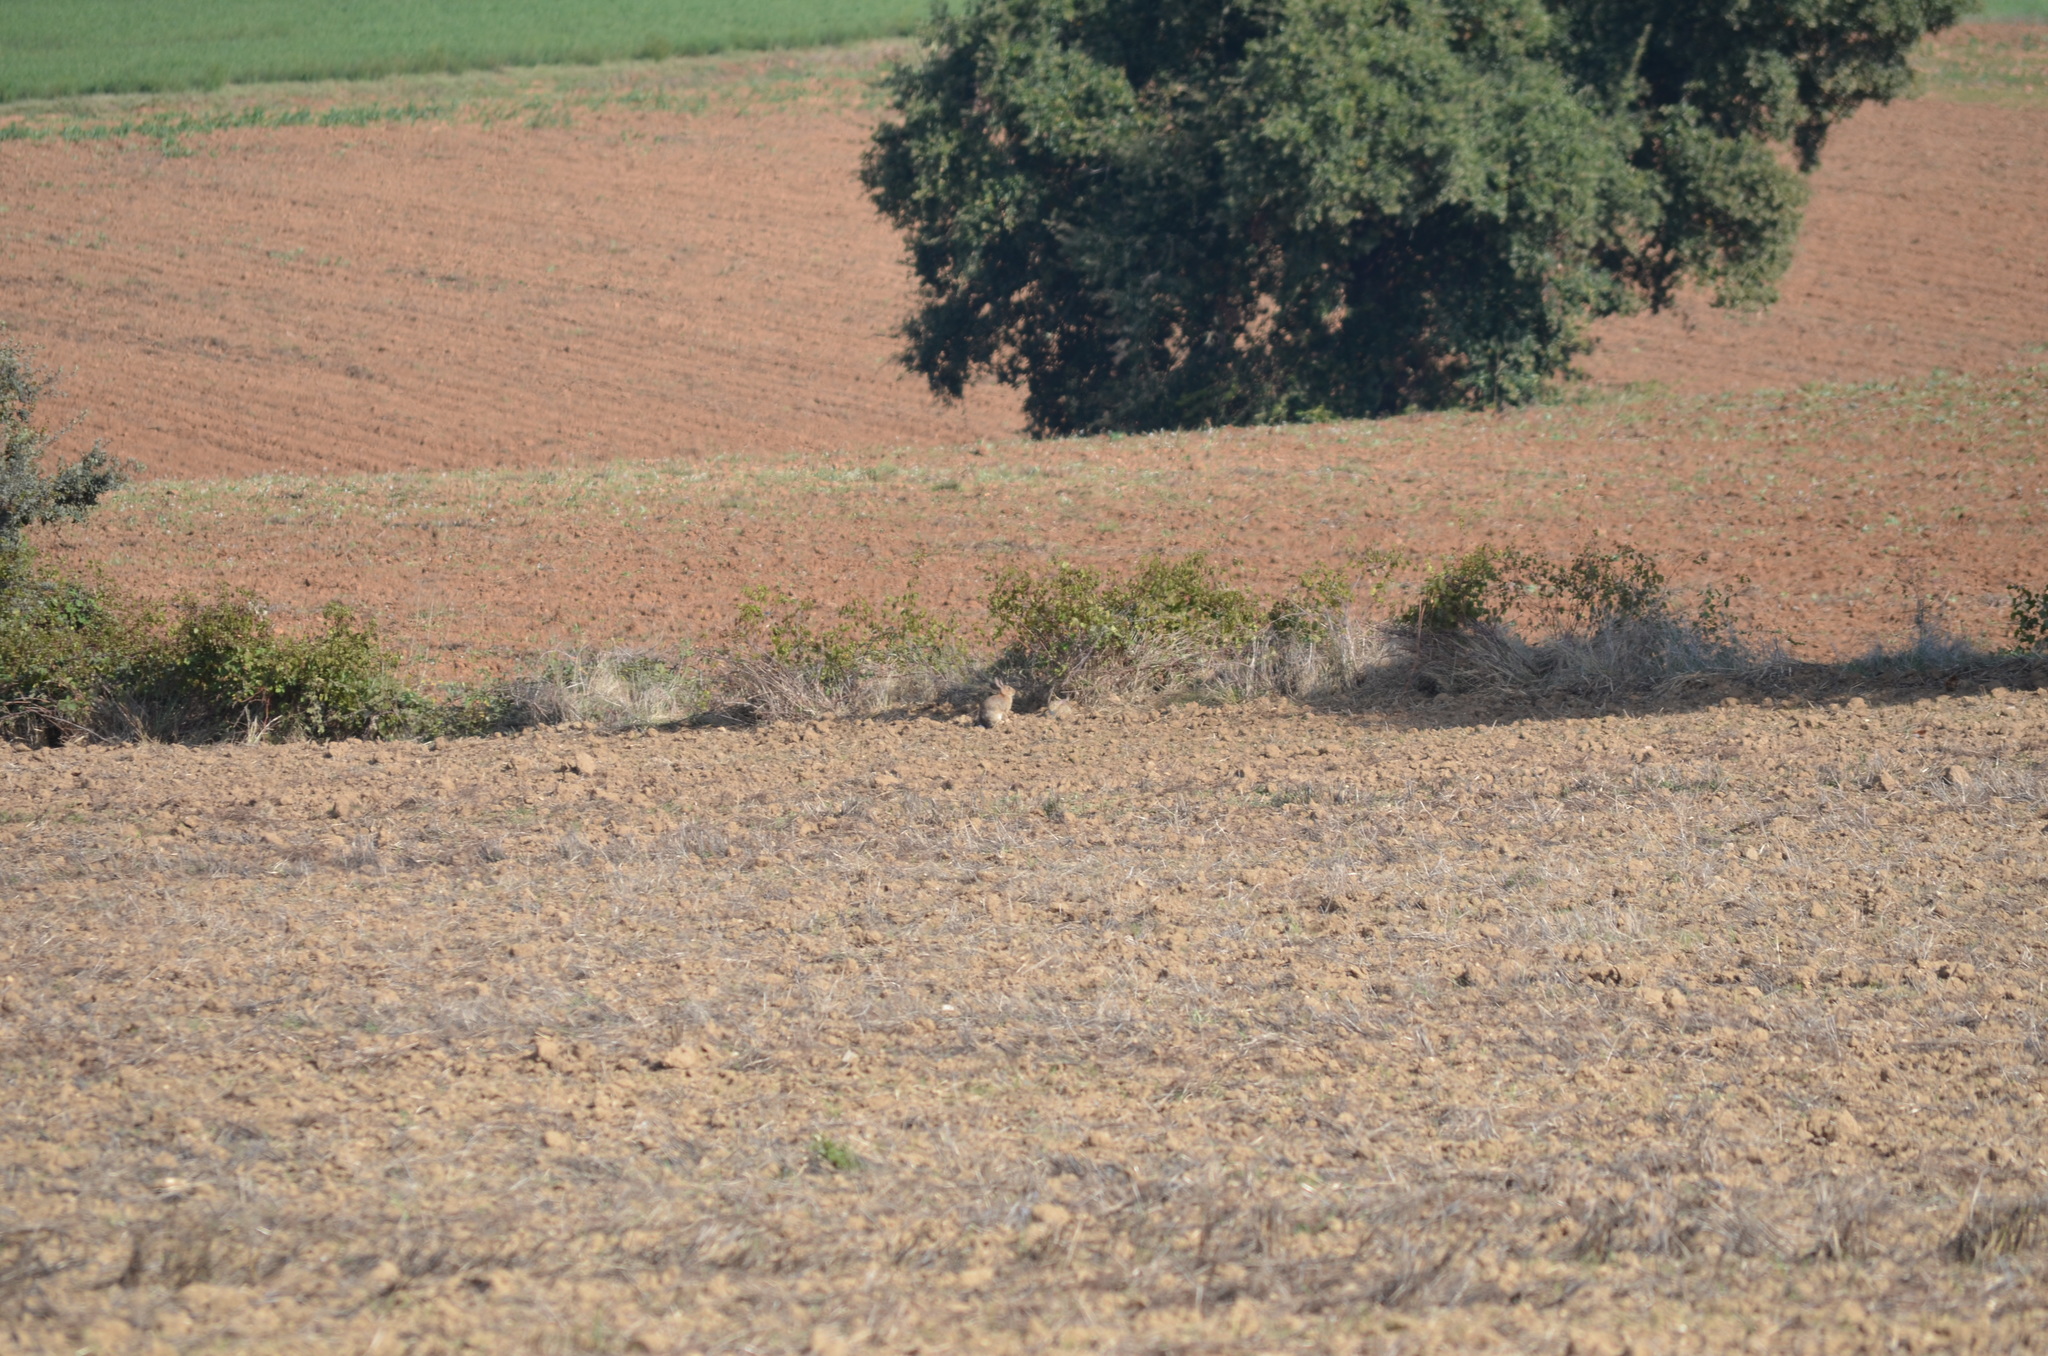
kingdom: Animalia
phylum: Chordata
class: Mammalia
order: Lagomorpha
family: Leporidae
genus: Oryctolagus
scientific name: Oryctolagus cuniculus
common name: European rabbit
